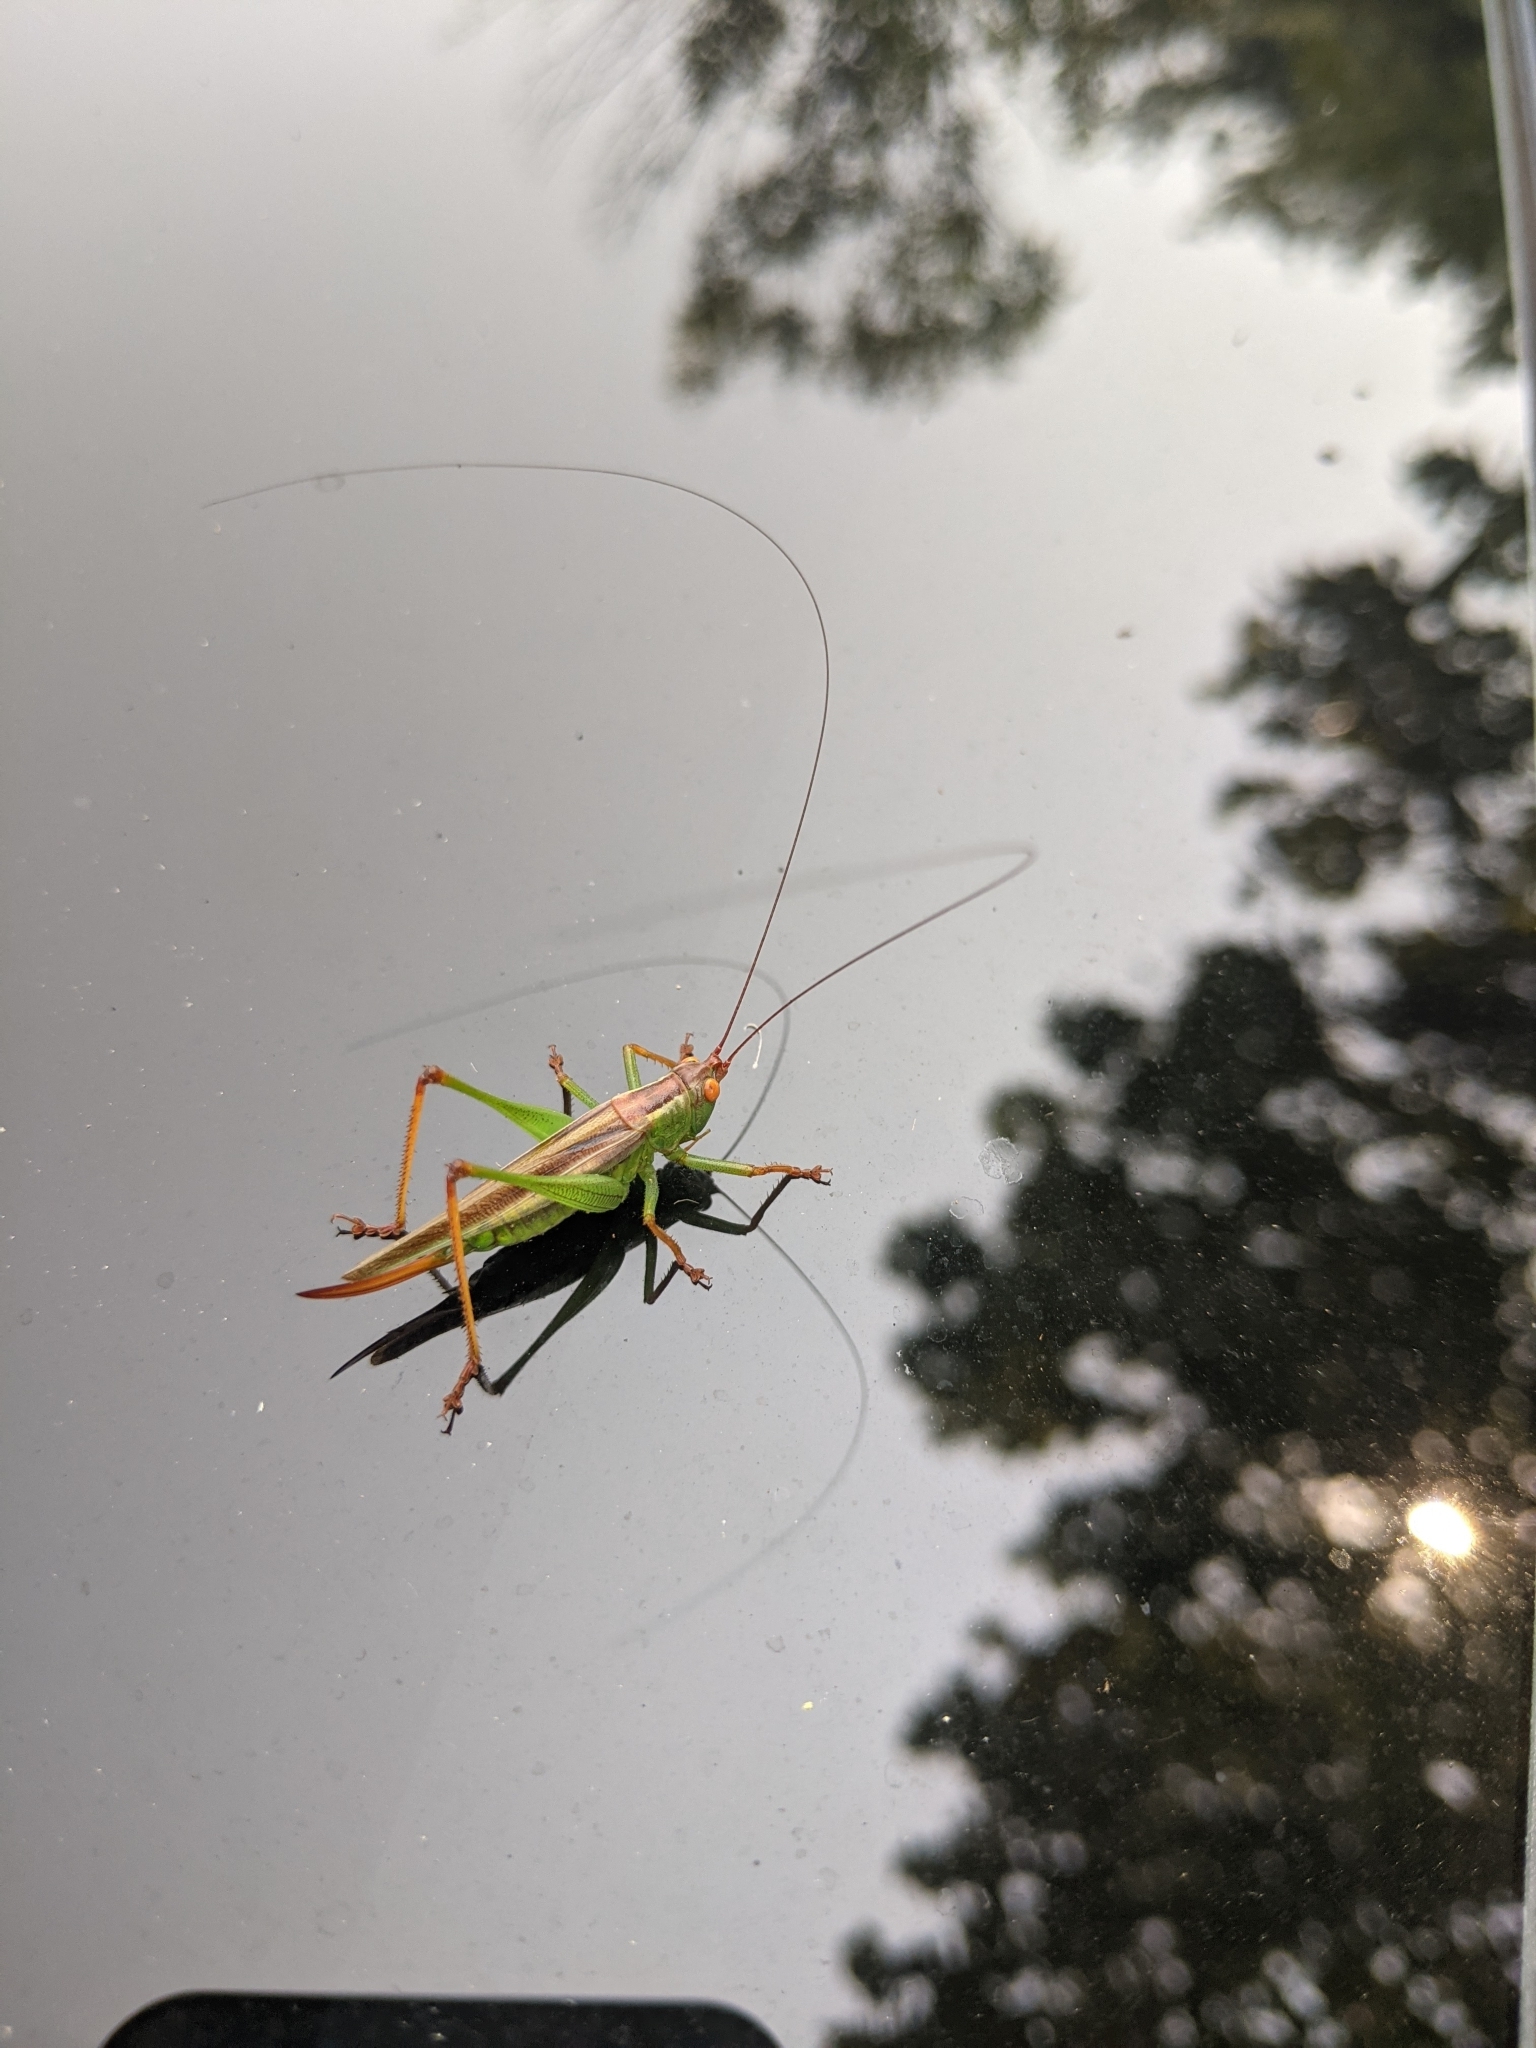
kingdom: Animalia
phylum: Arthropoda
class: Insecta
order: Orthoptera
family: Tettigoniidae
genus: Orchelimum
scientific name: Orchelimum minor
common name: Lesser pine meadow katydid
